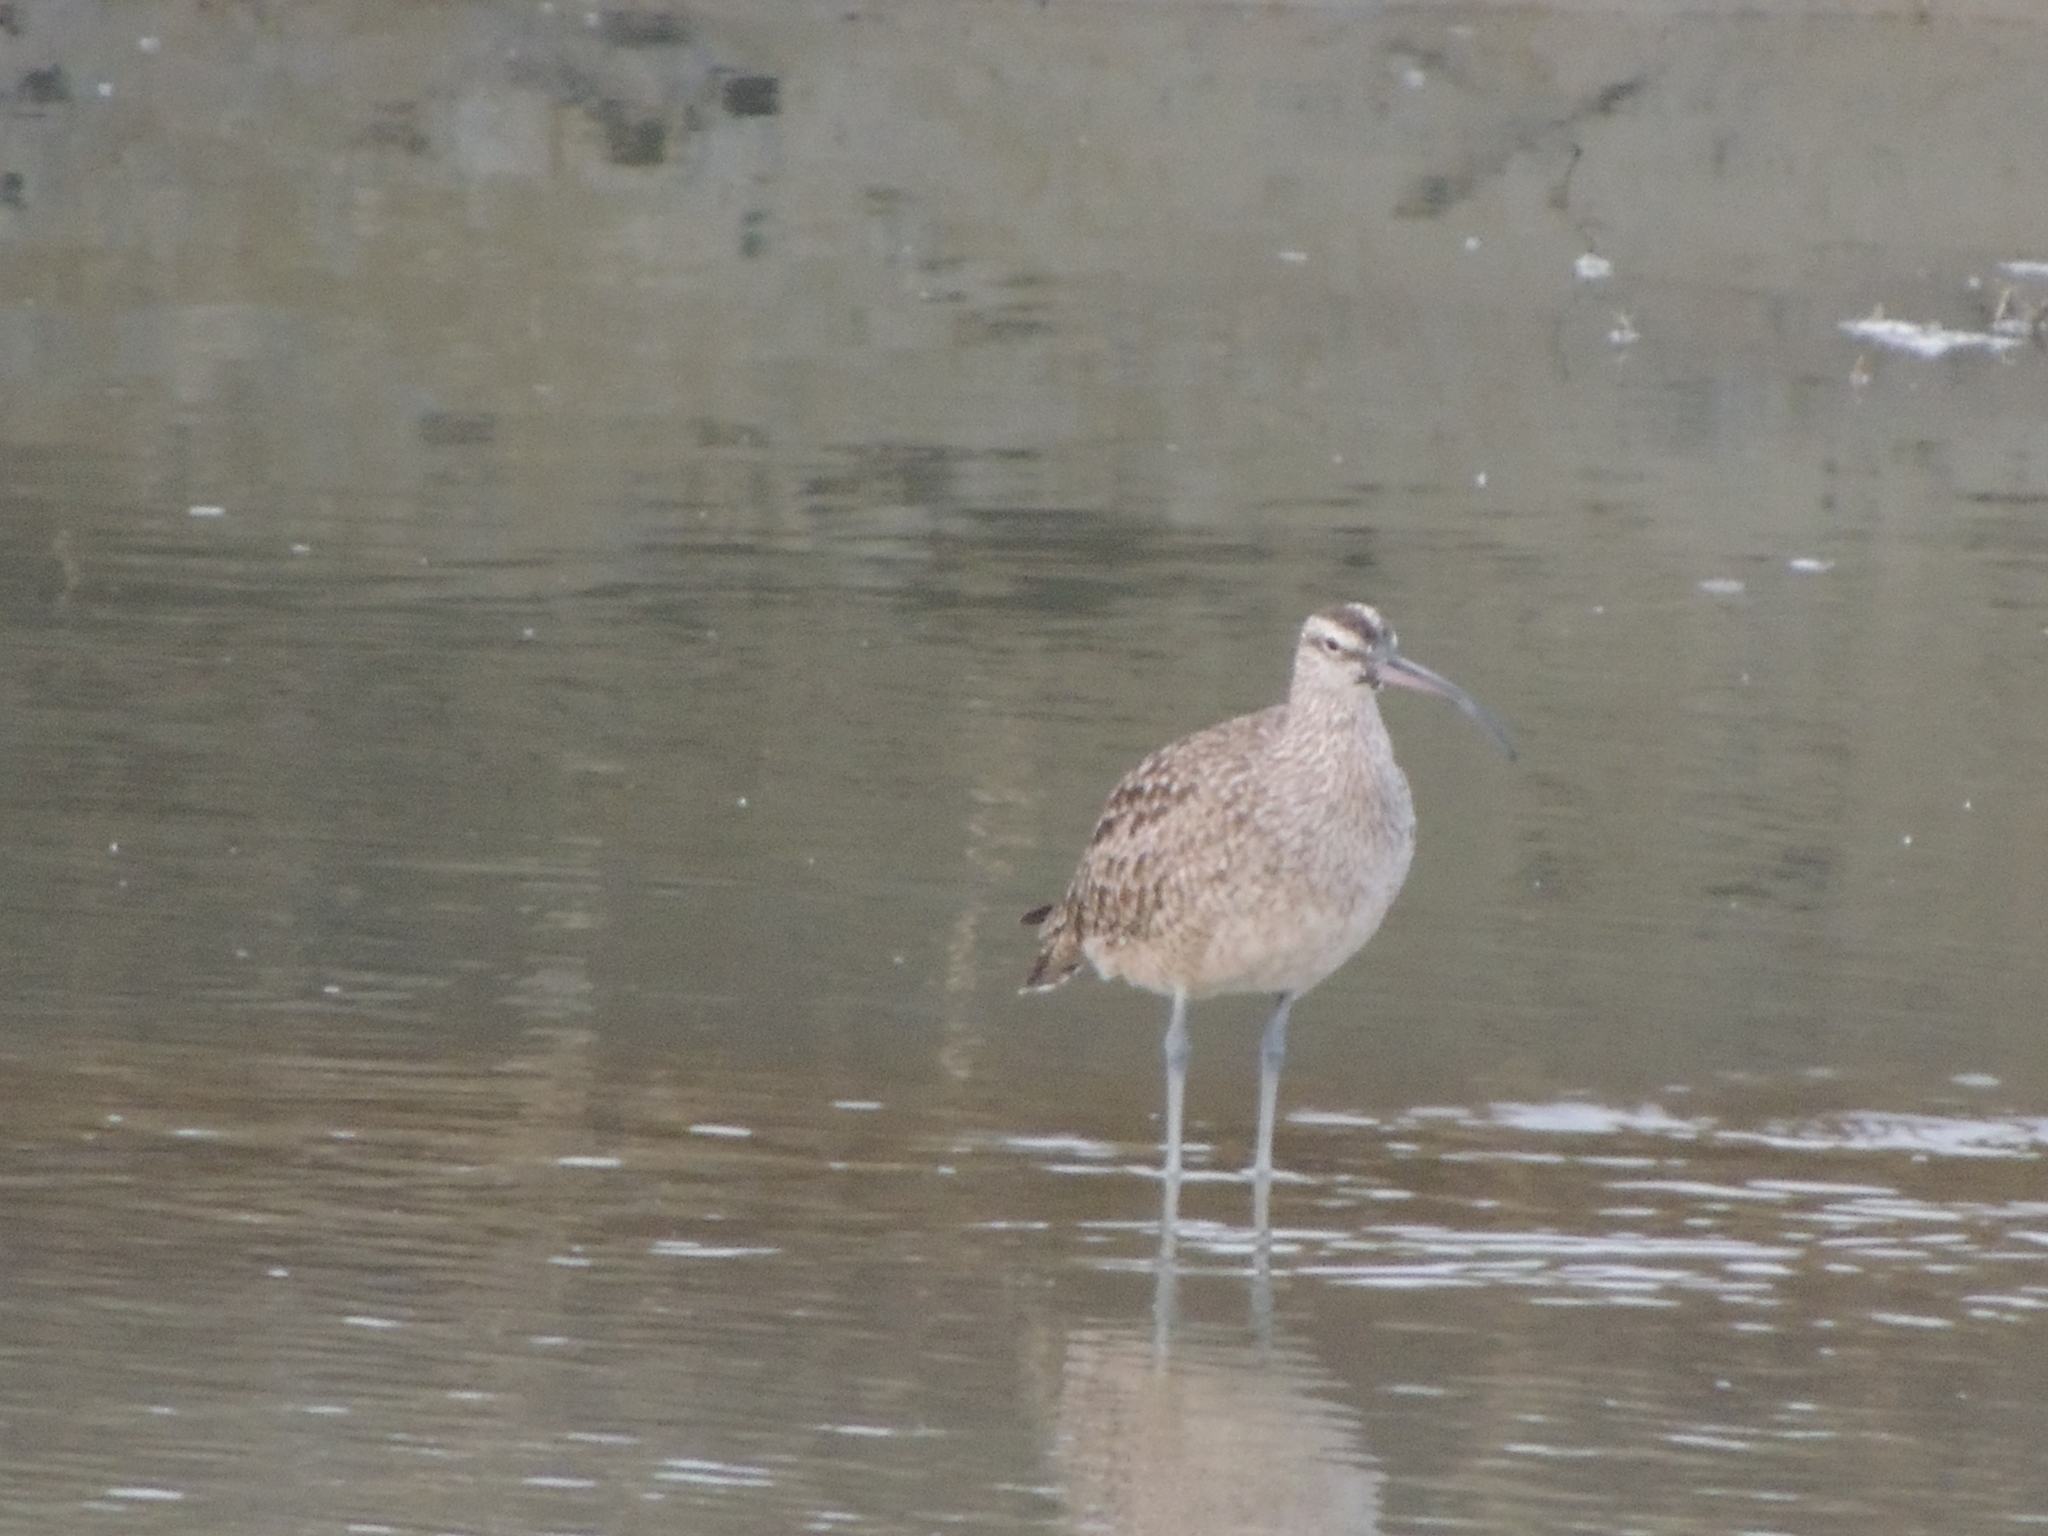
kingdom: Animalia
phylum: Chordata
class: Aves
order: Charadriiformes
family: Scolopacidae
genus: Numenius
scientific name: Numenius phaeopus
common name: Whimbrel
